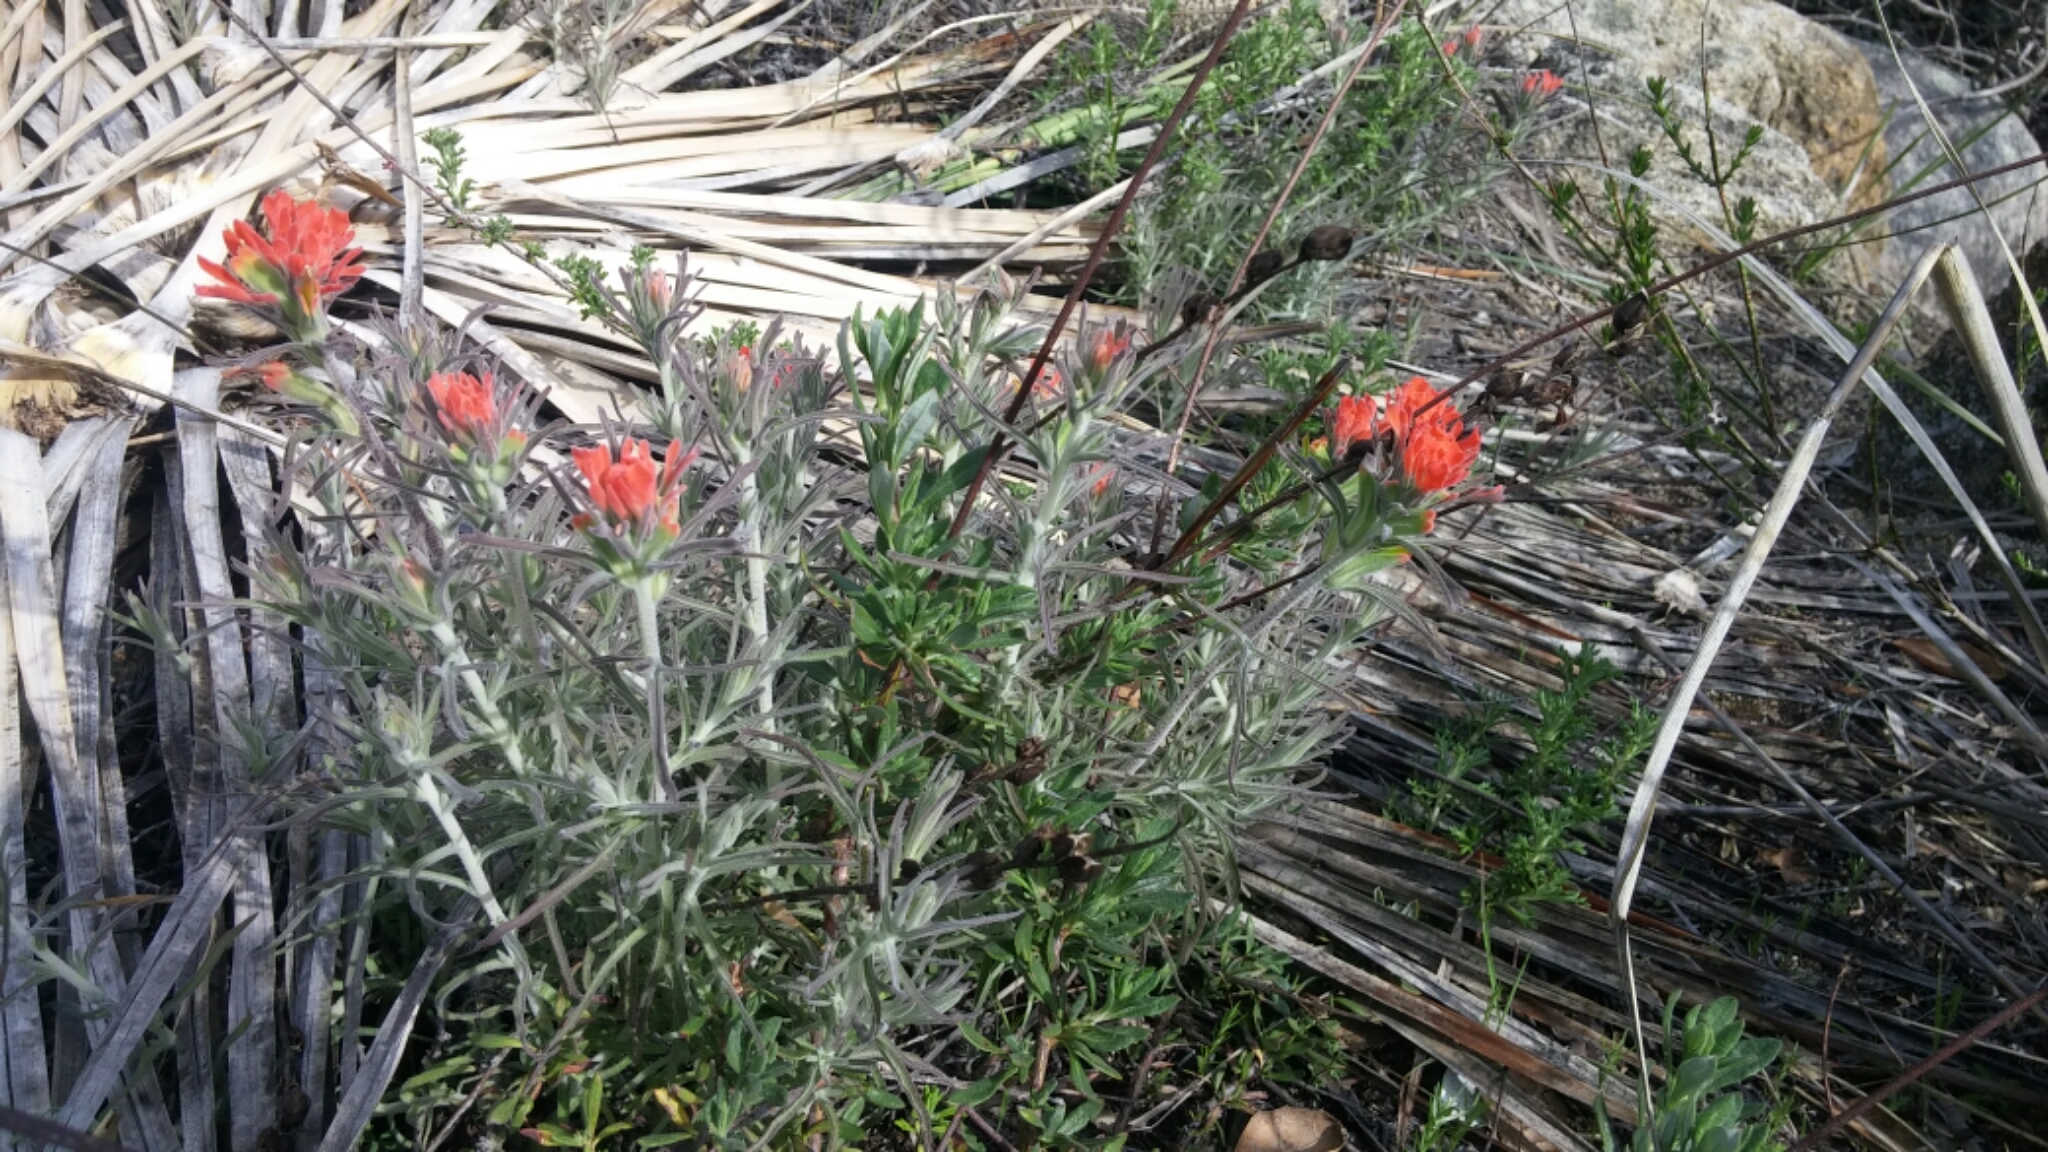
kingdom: Plantae
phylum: Tracheophyta
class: Magnoliopsida
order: Lamiales
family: Orobanchaceae
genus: Castilleja
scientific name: Castilleja foliolosa
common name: Woolly indian paintbrush
